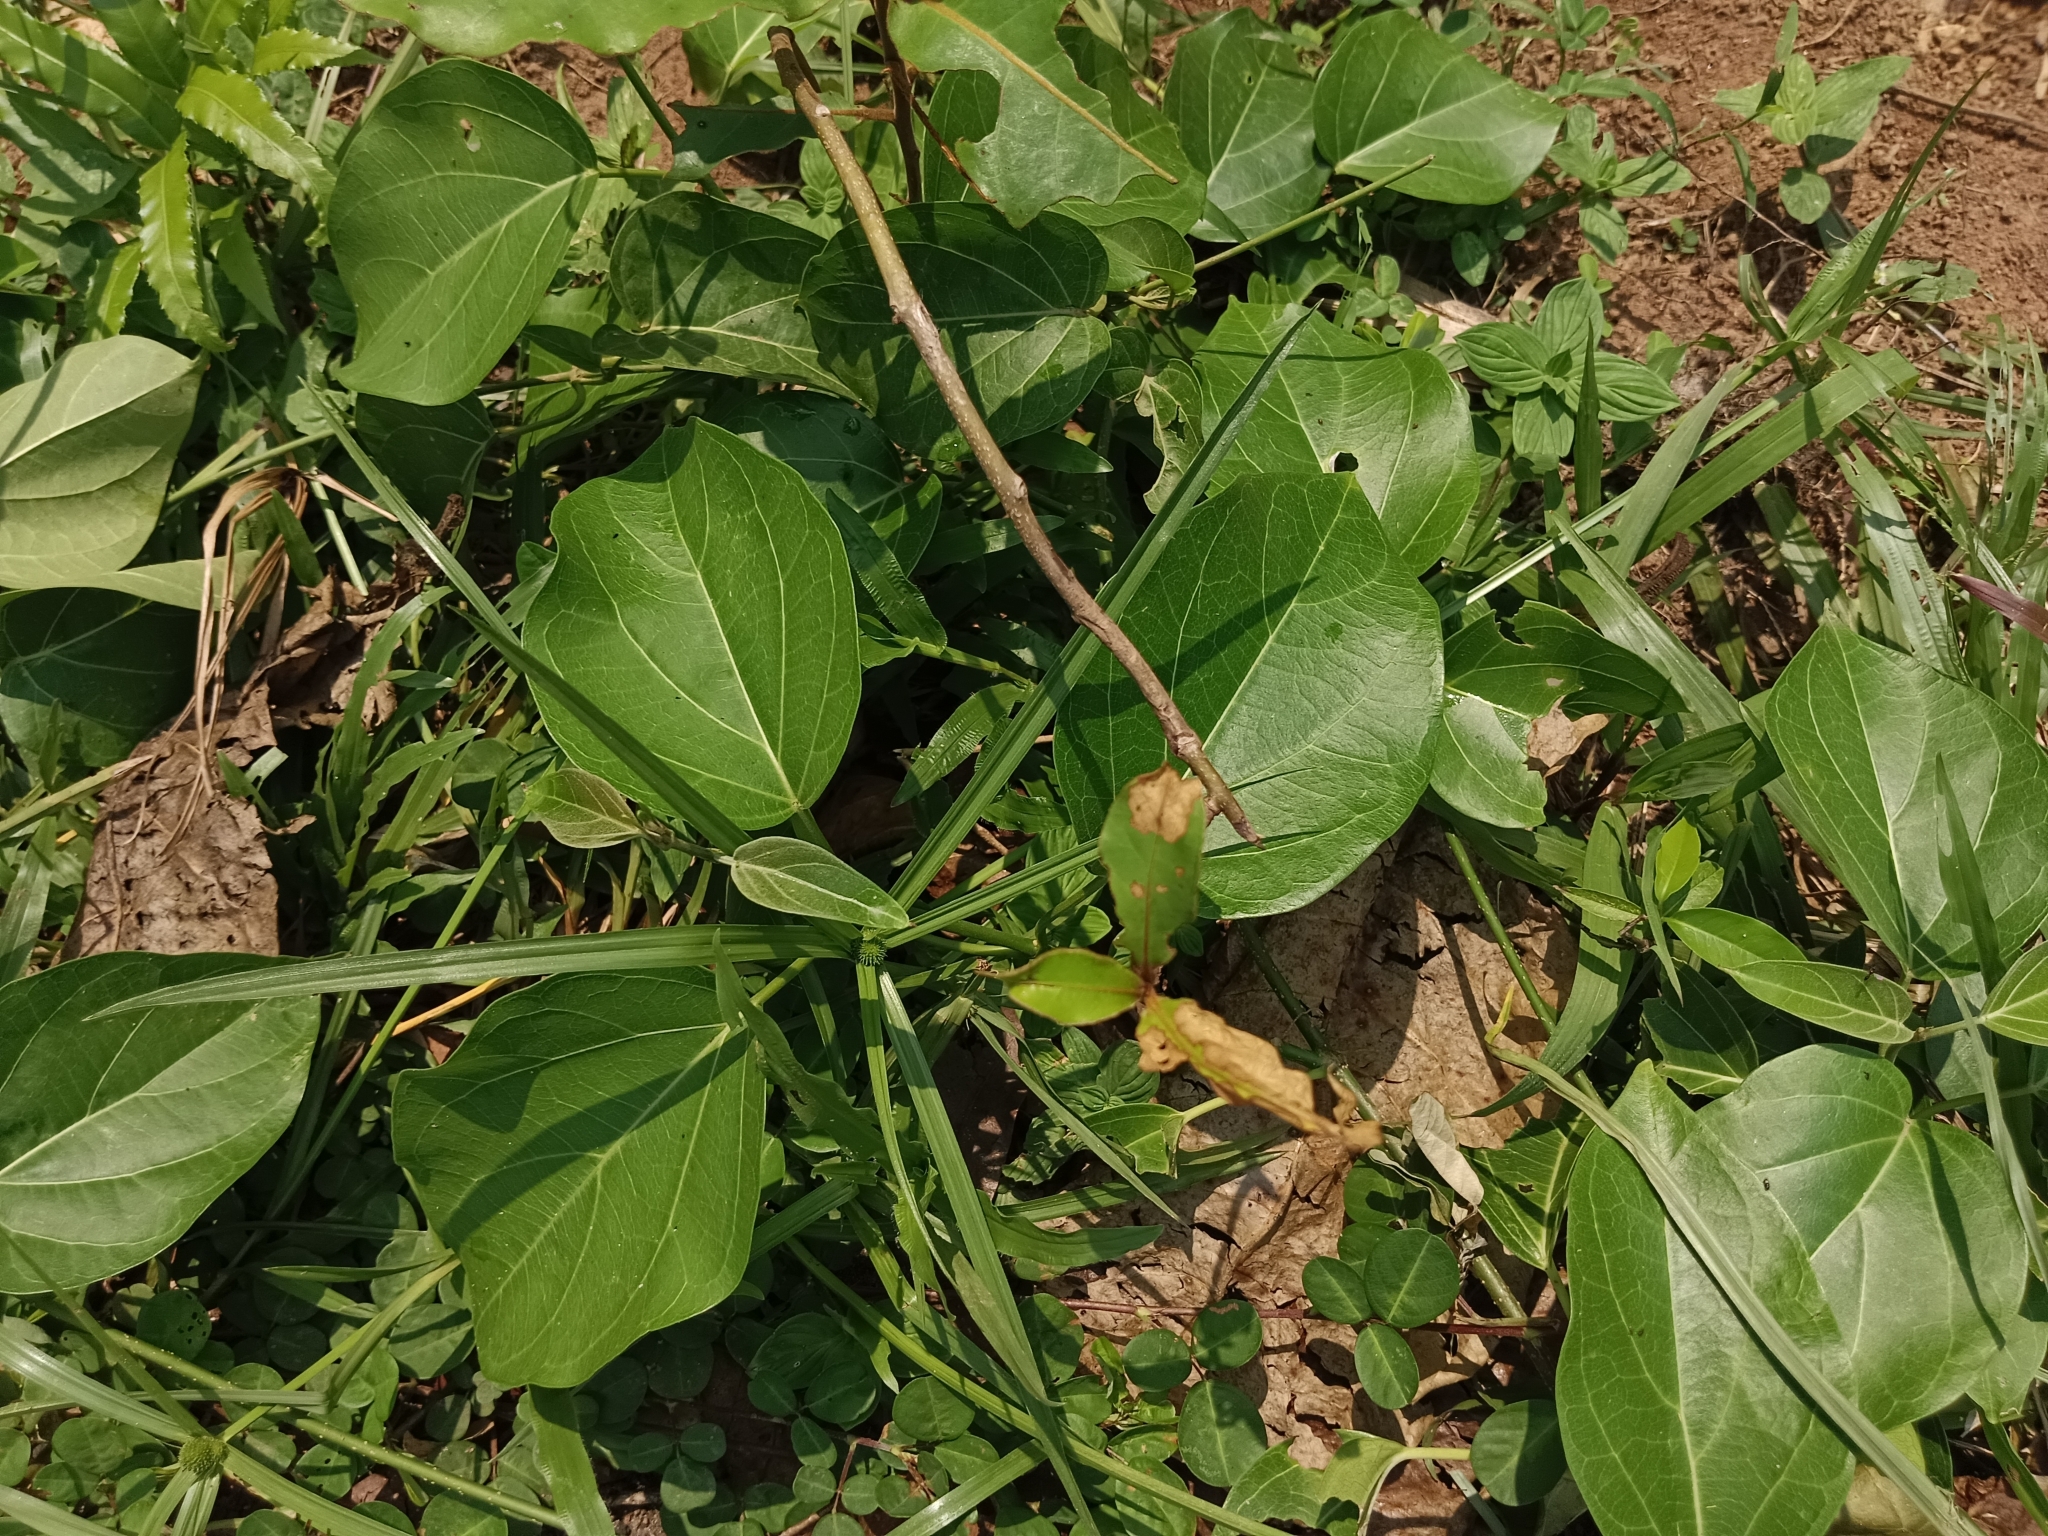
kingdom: Plantae
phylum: Tracheophyta
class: Magnoliopsida
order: Gentianales
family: Apocynaceae
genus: Stephanotis
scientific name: Stephanotis volubilis
